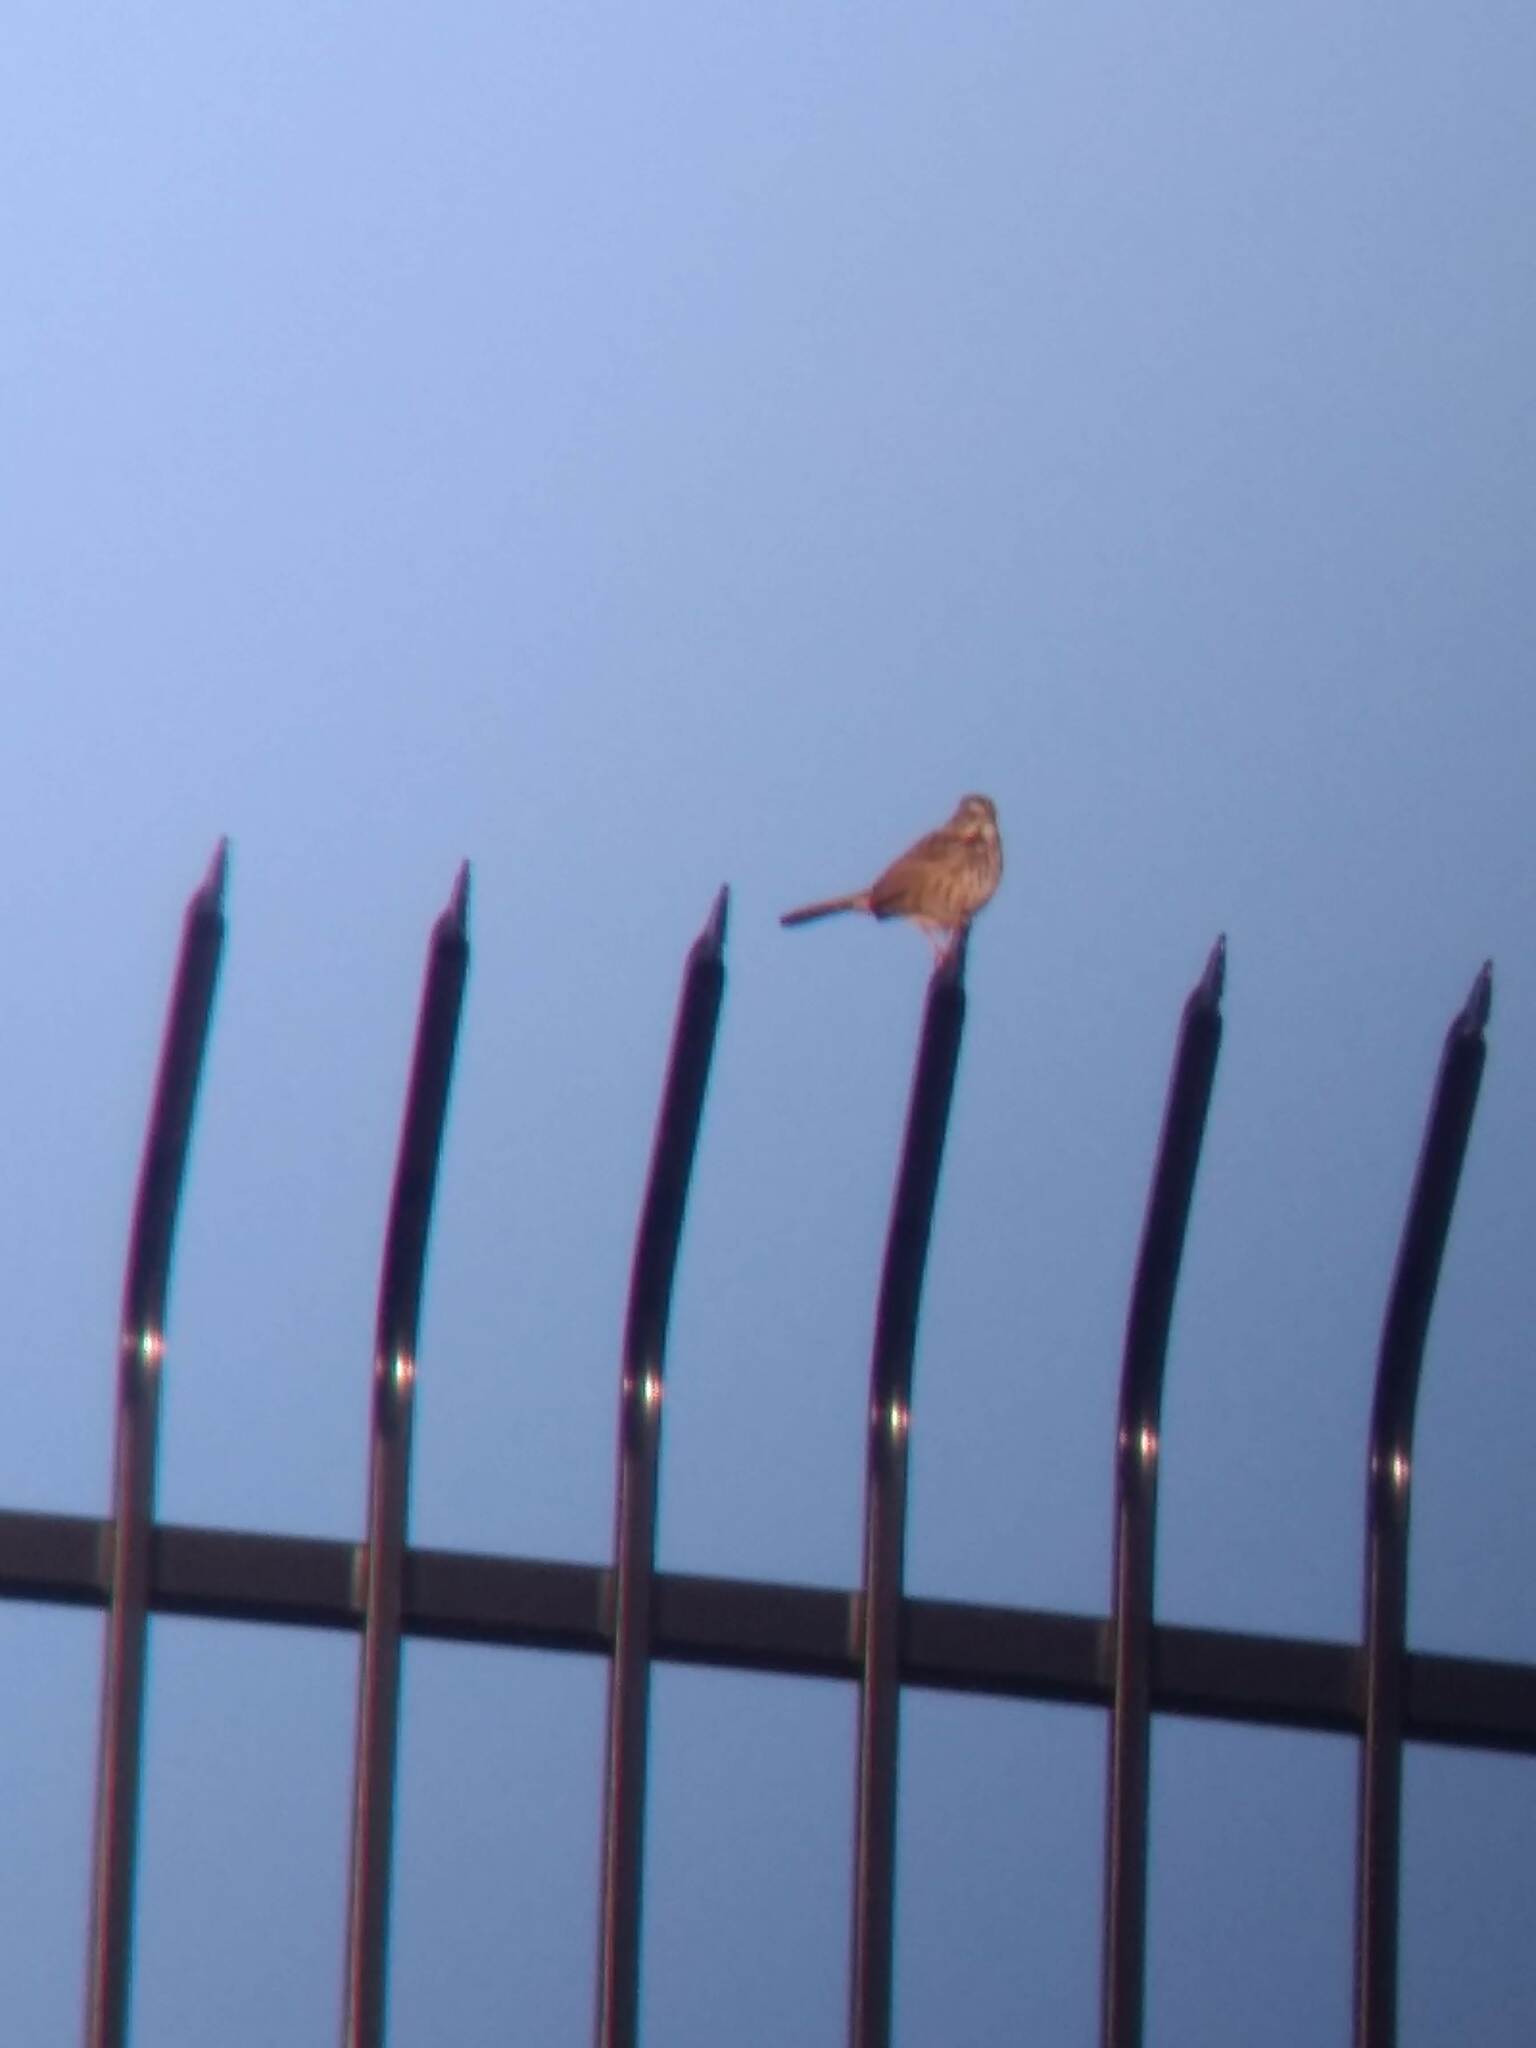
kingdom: Animalia
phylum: Chordata
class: Aves
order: Passeriformes
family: Passerellidae
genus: Melospiza
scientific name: Melospiza melodia
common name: Song sparrow
